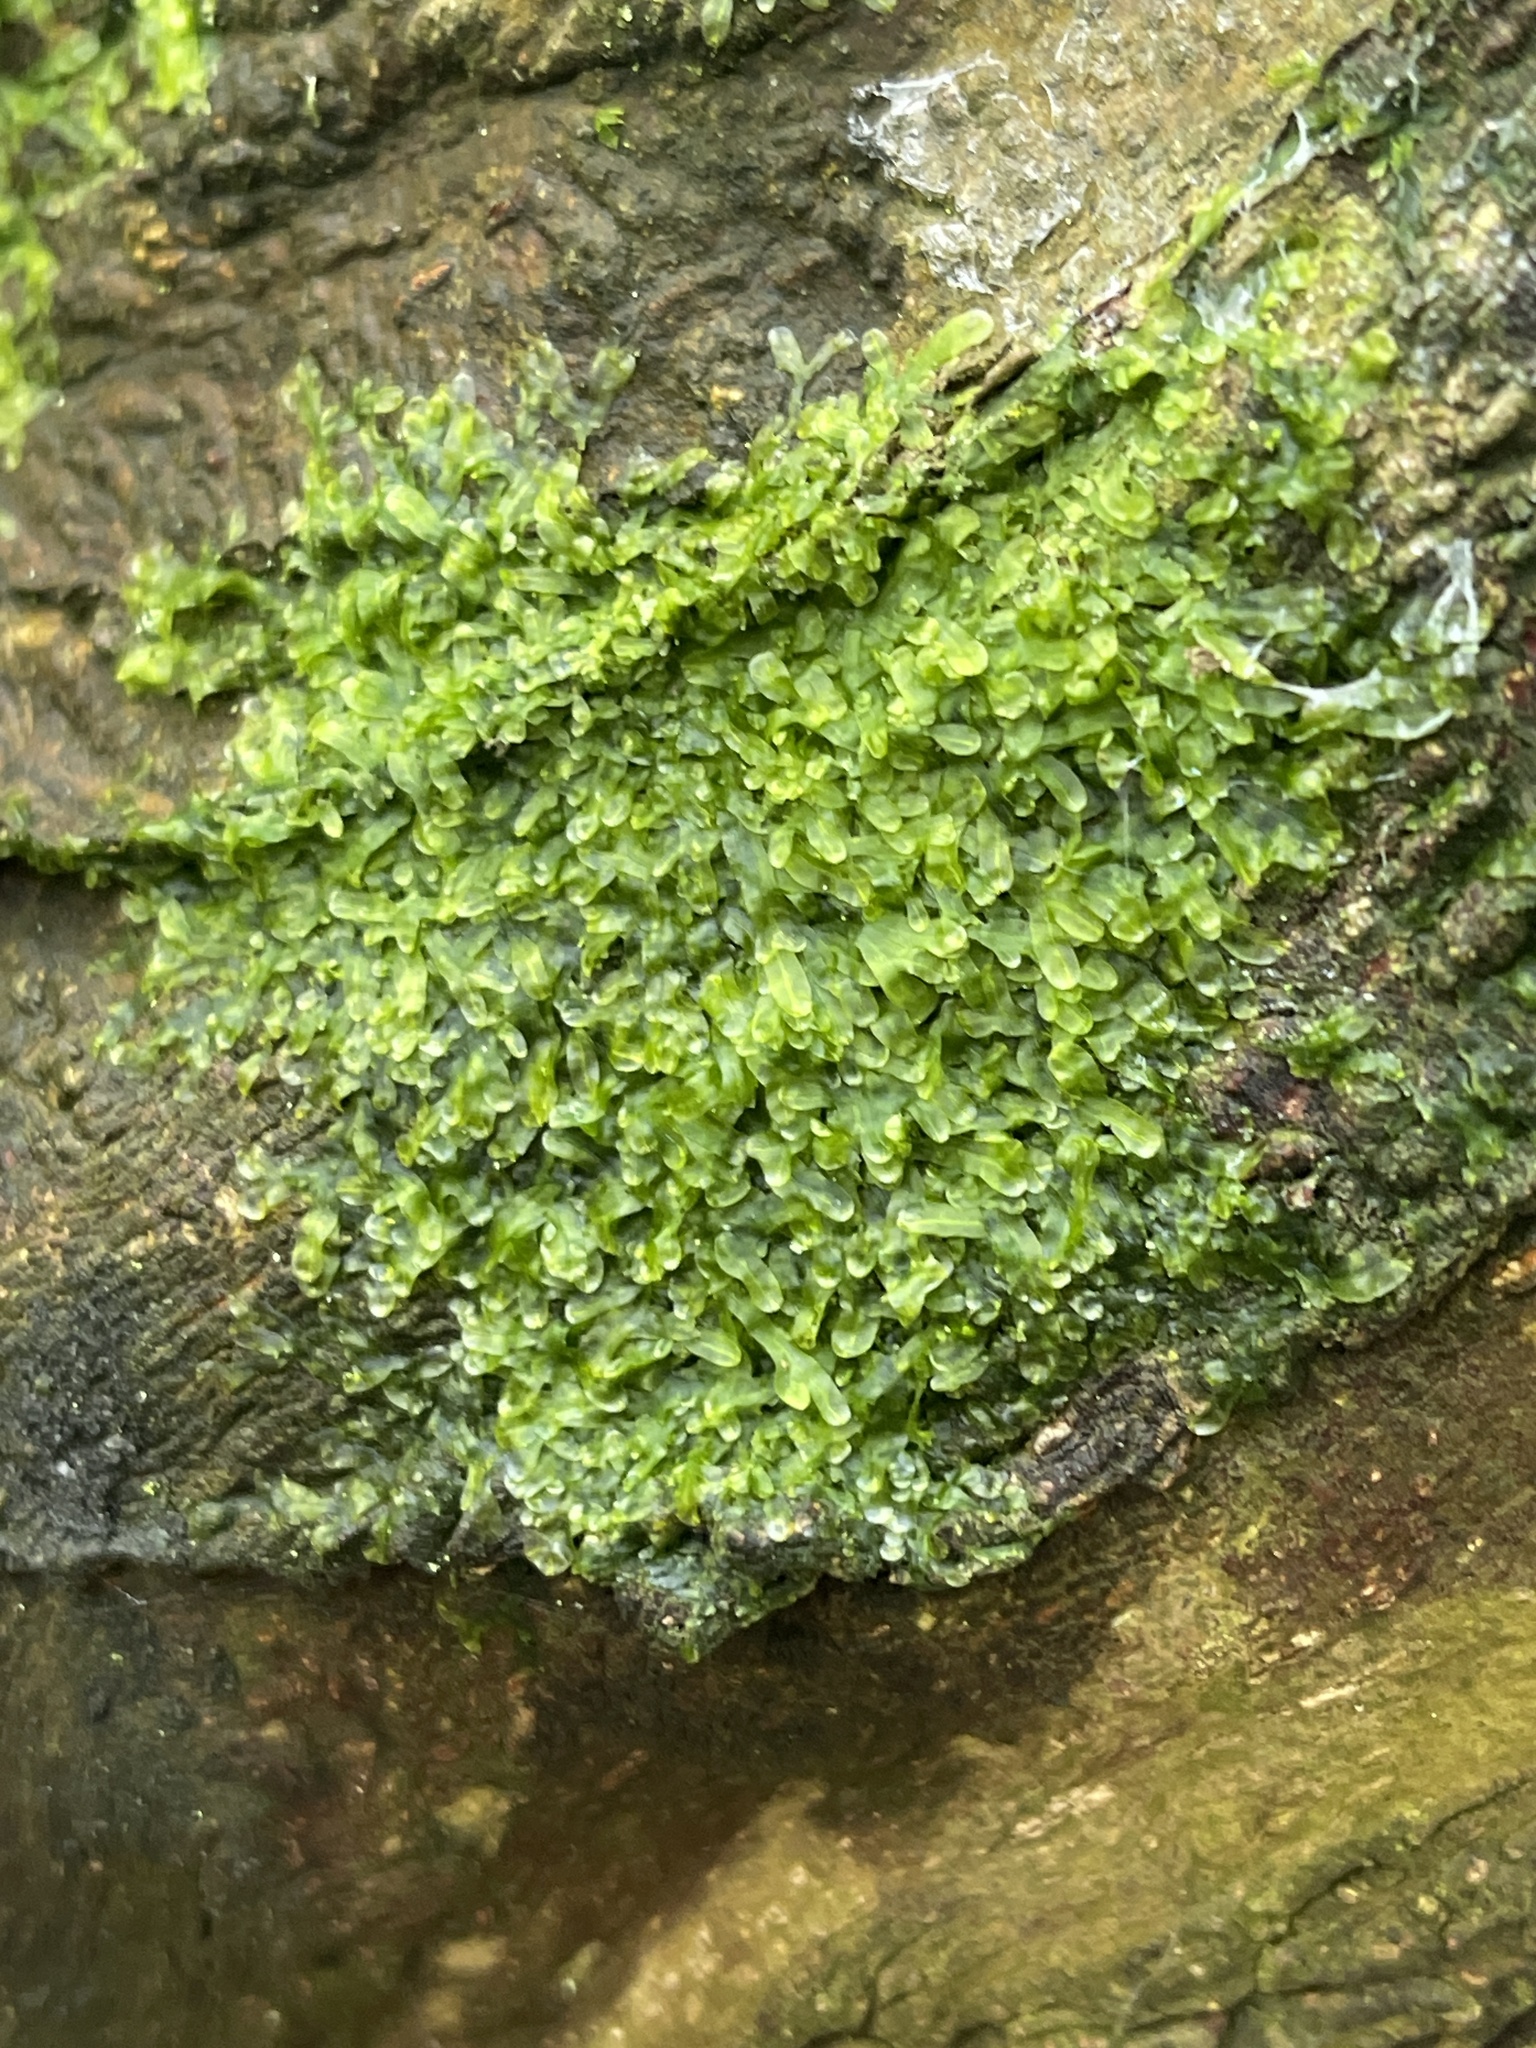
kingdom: Plantae
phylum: Marchantiophyta
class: Jungermanniopsida
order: Metzgeriales
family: Metzgeriaceae
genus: Metzgeria
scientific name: Metzgeria furcata
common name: Forked veilwort
